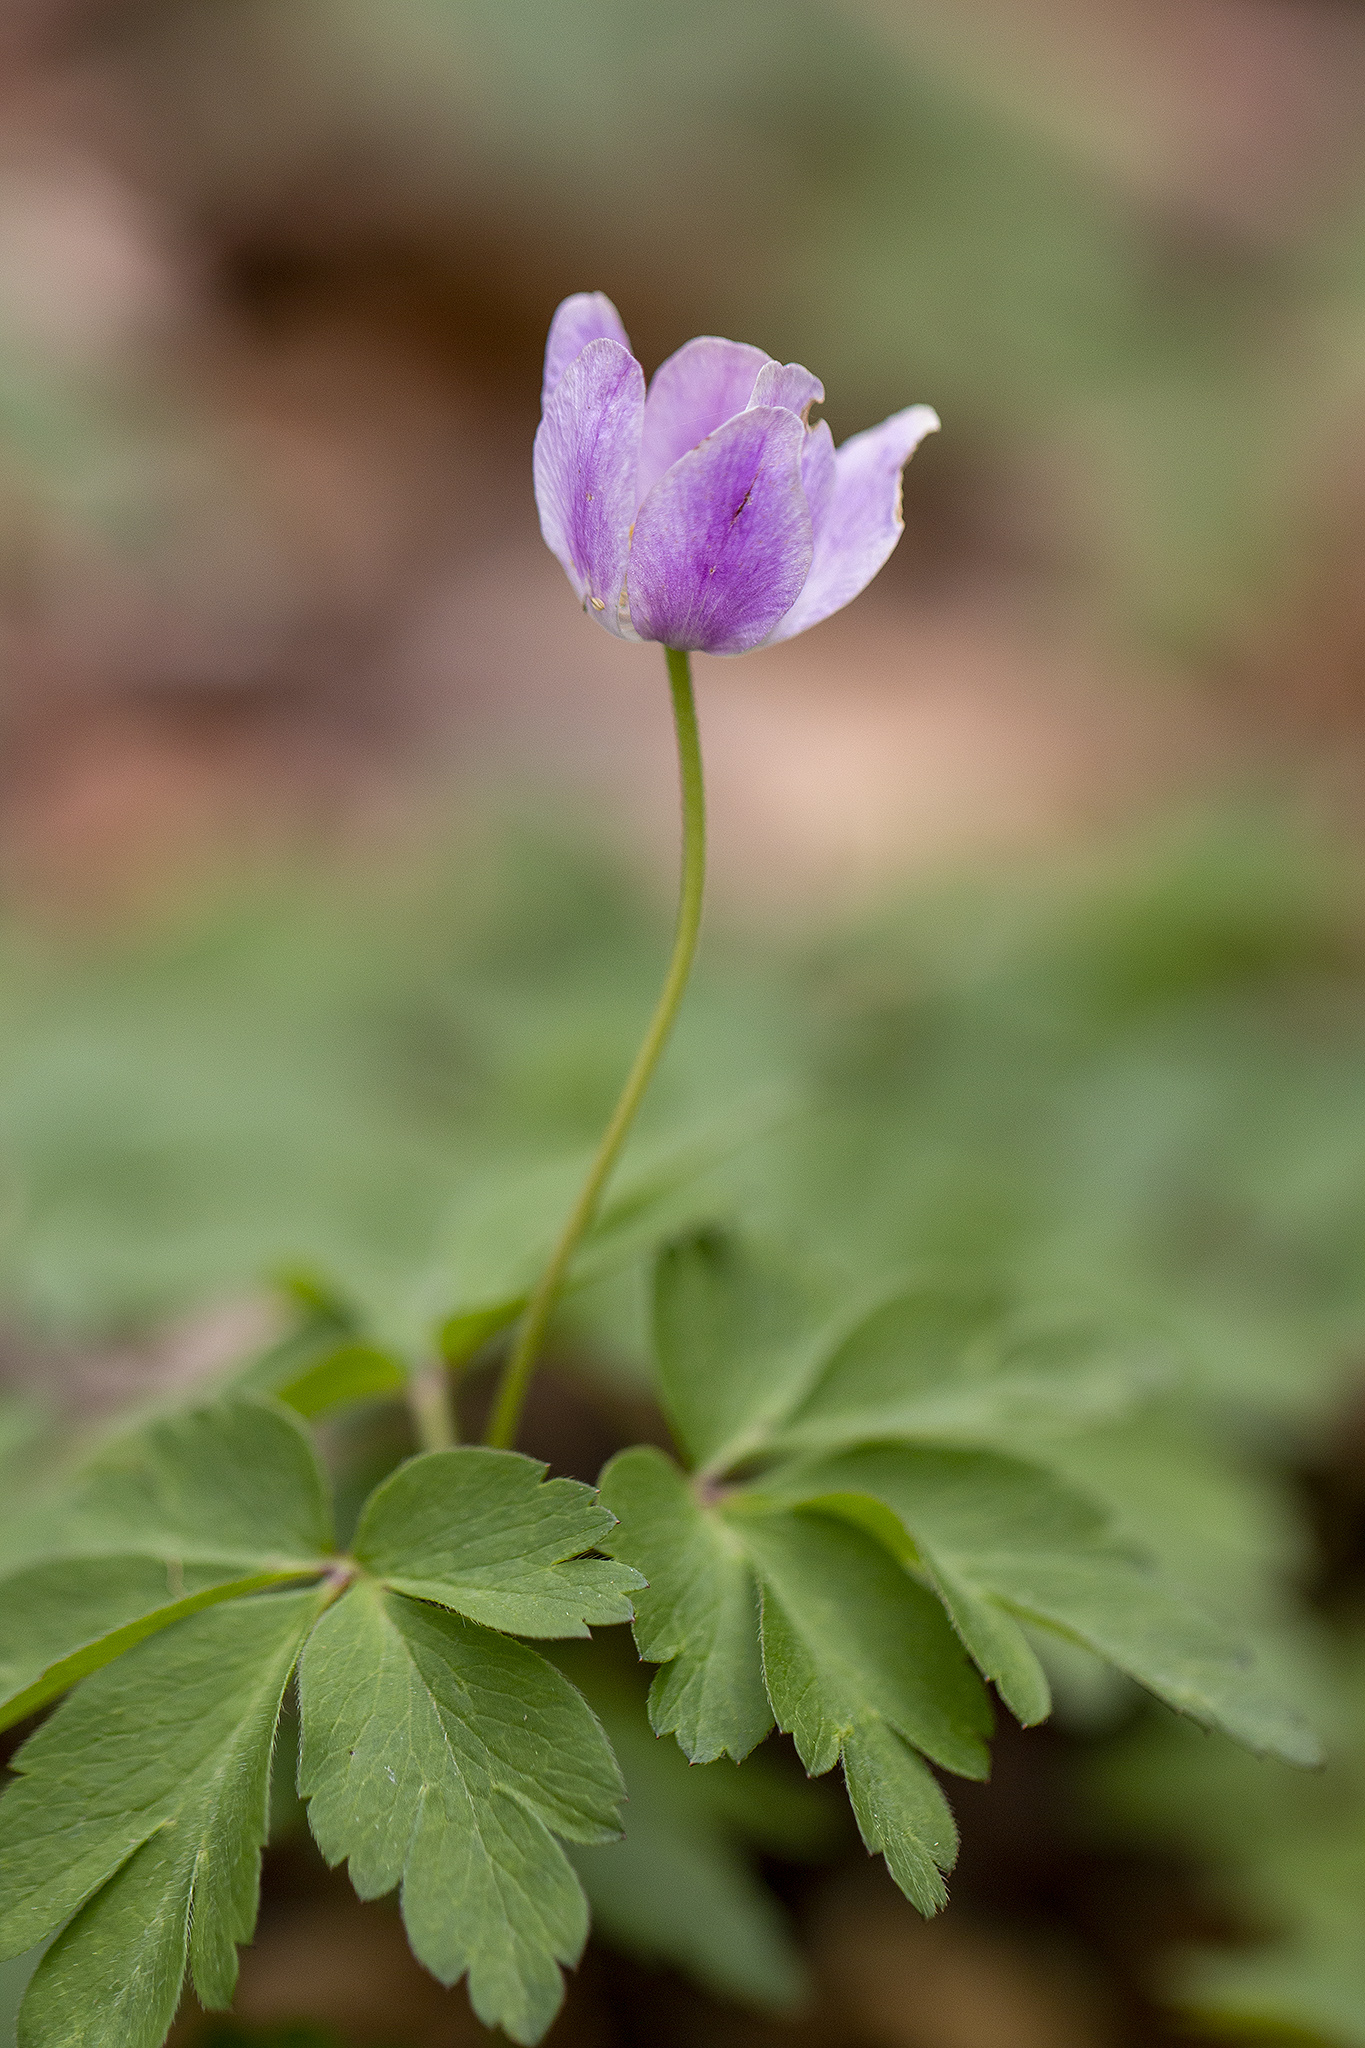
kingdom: Plantae
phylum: Tracheophyta
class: Magnoliopsida
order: Ranunculales
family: Ranunculaceae
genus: Anemone
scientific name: Anemone nemorosa
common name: Wood anemone
